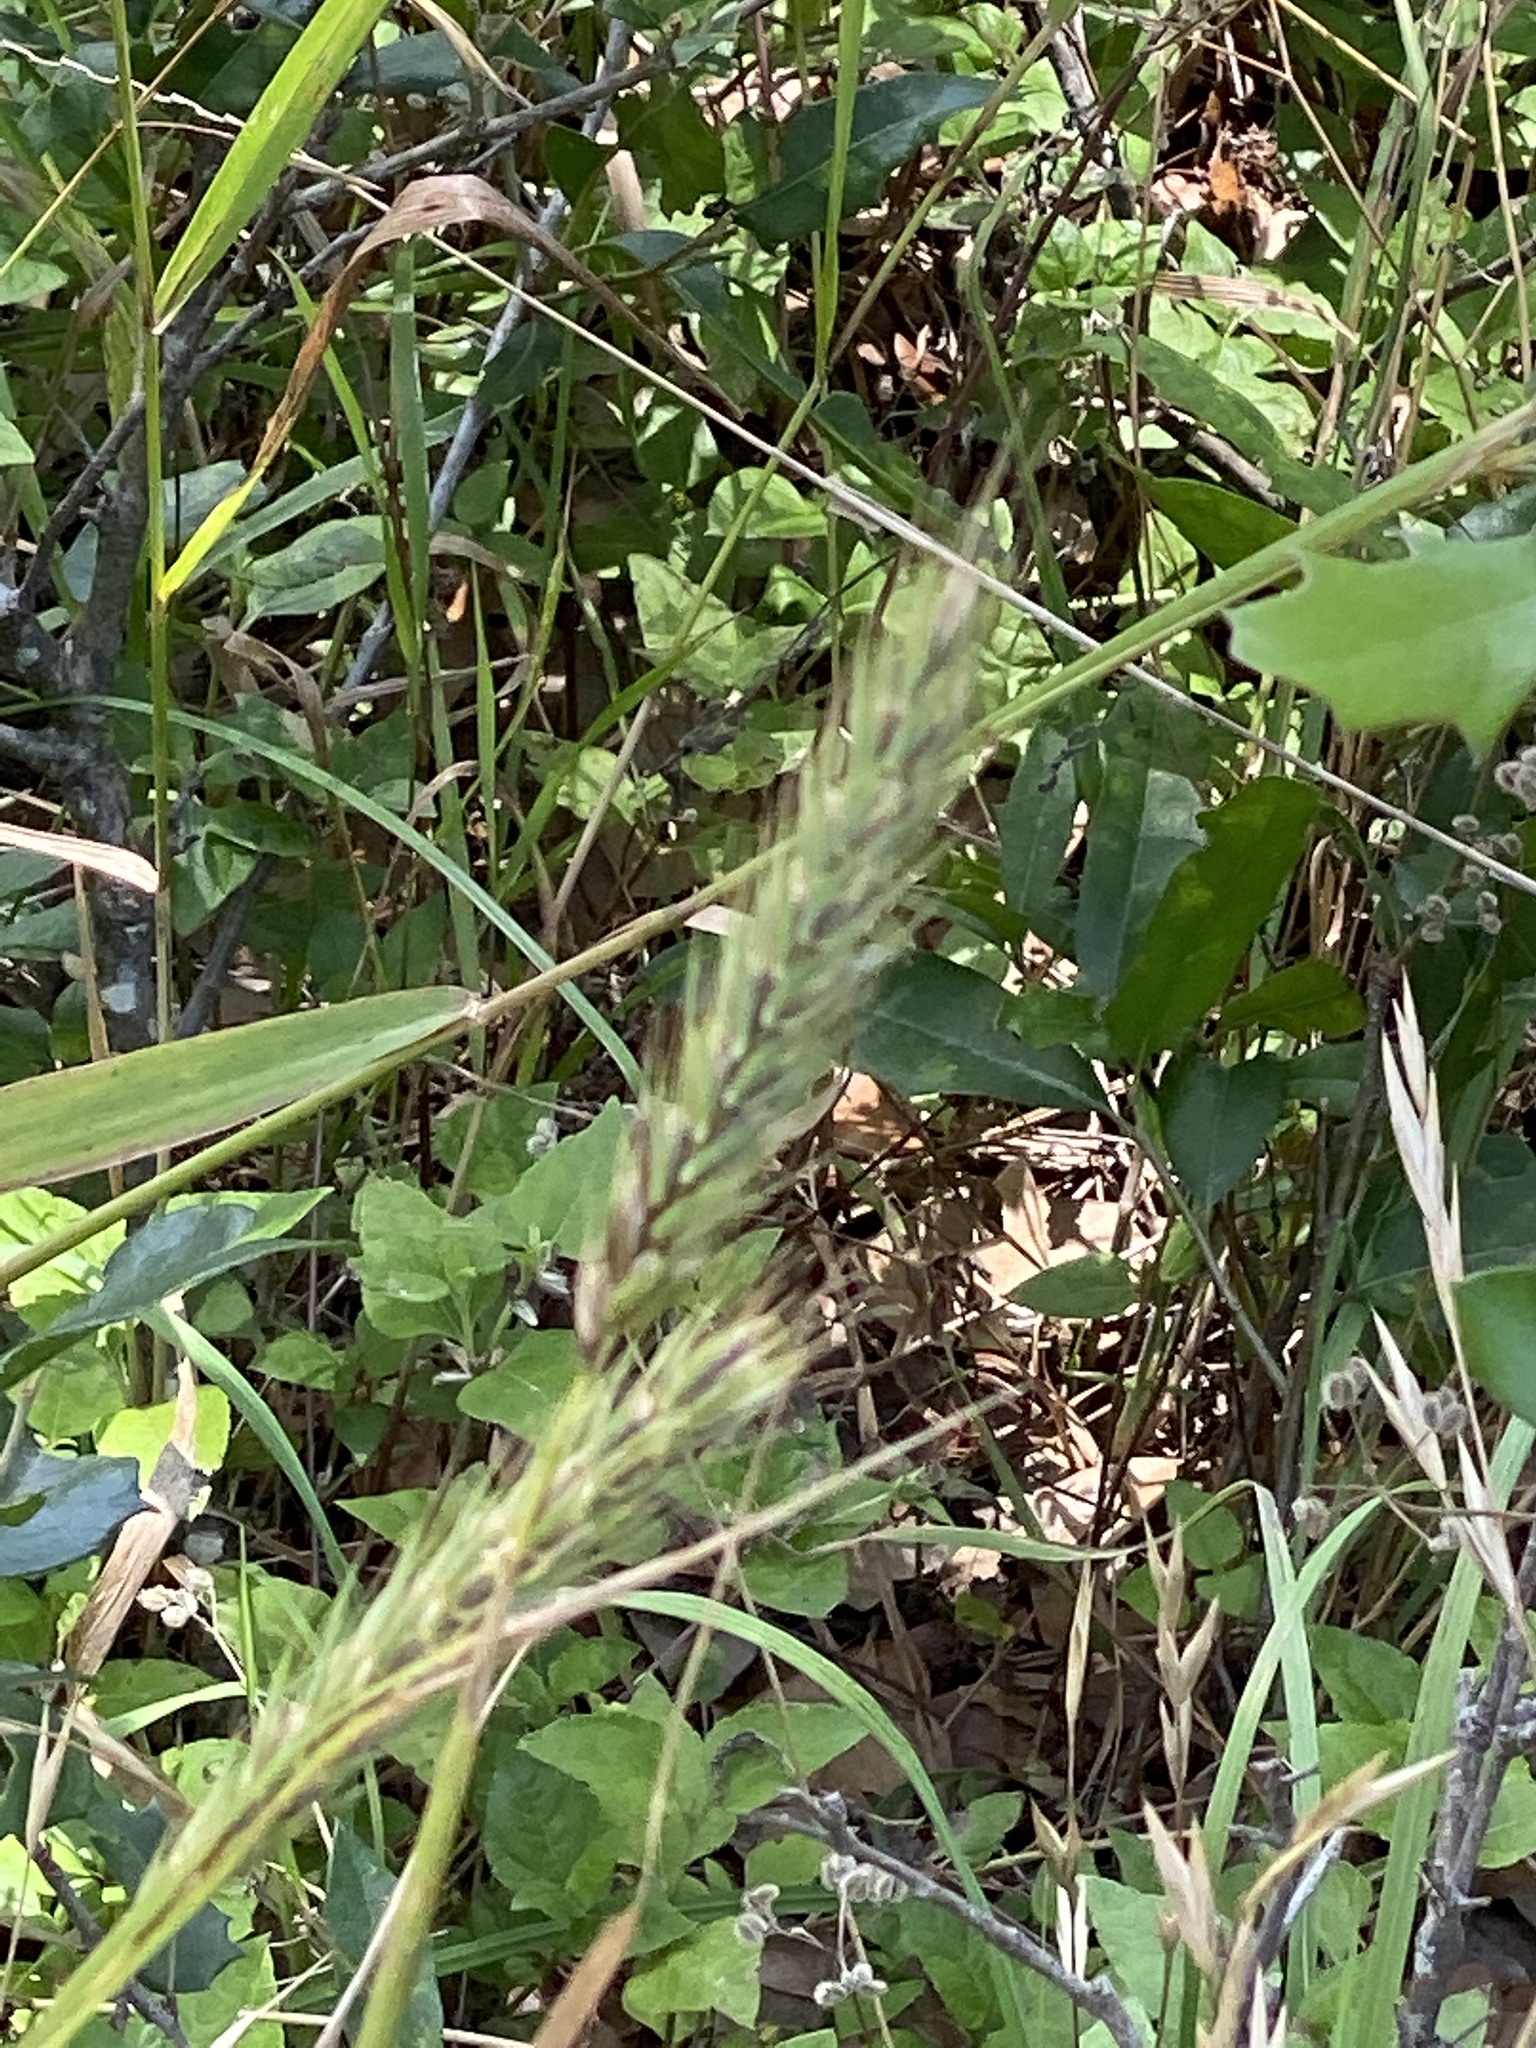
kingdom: Plantae
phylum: Tracheophyta
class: Liliopsida
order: Poales
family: Poaceae
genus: Elymus
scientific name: Elymus virginicus
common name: Common eastern wildrye
